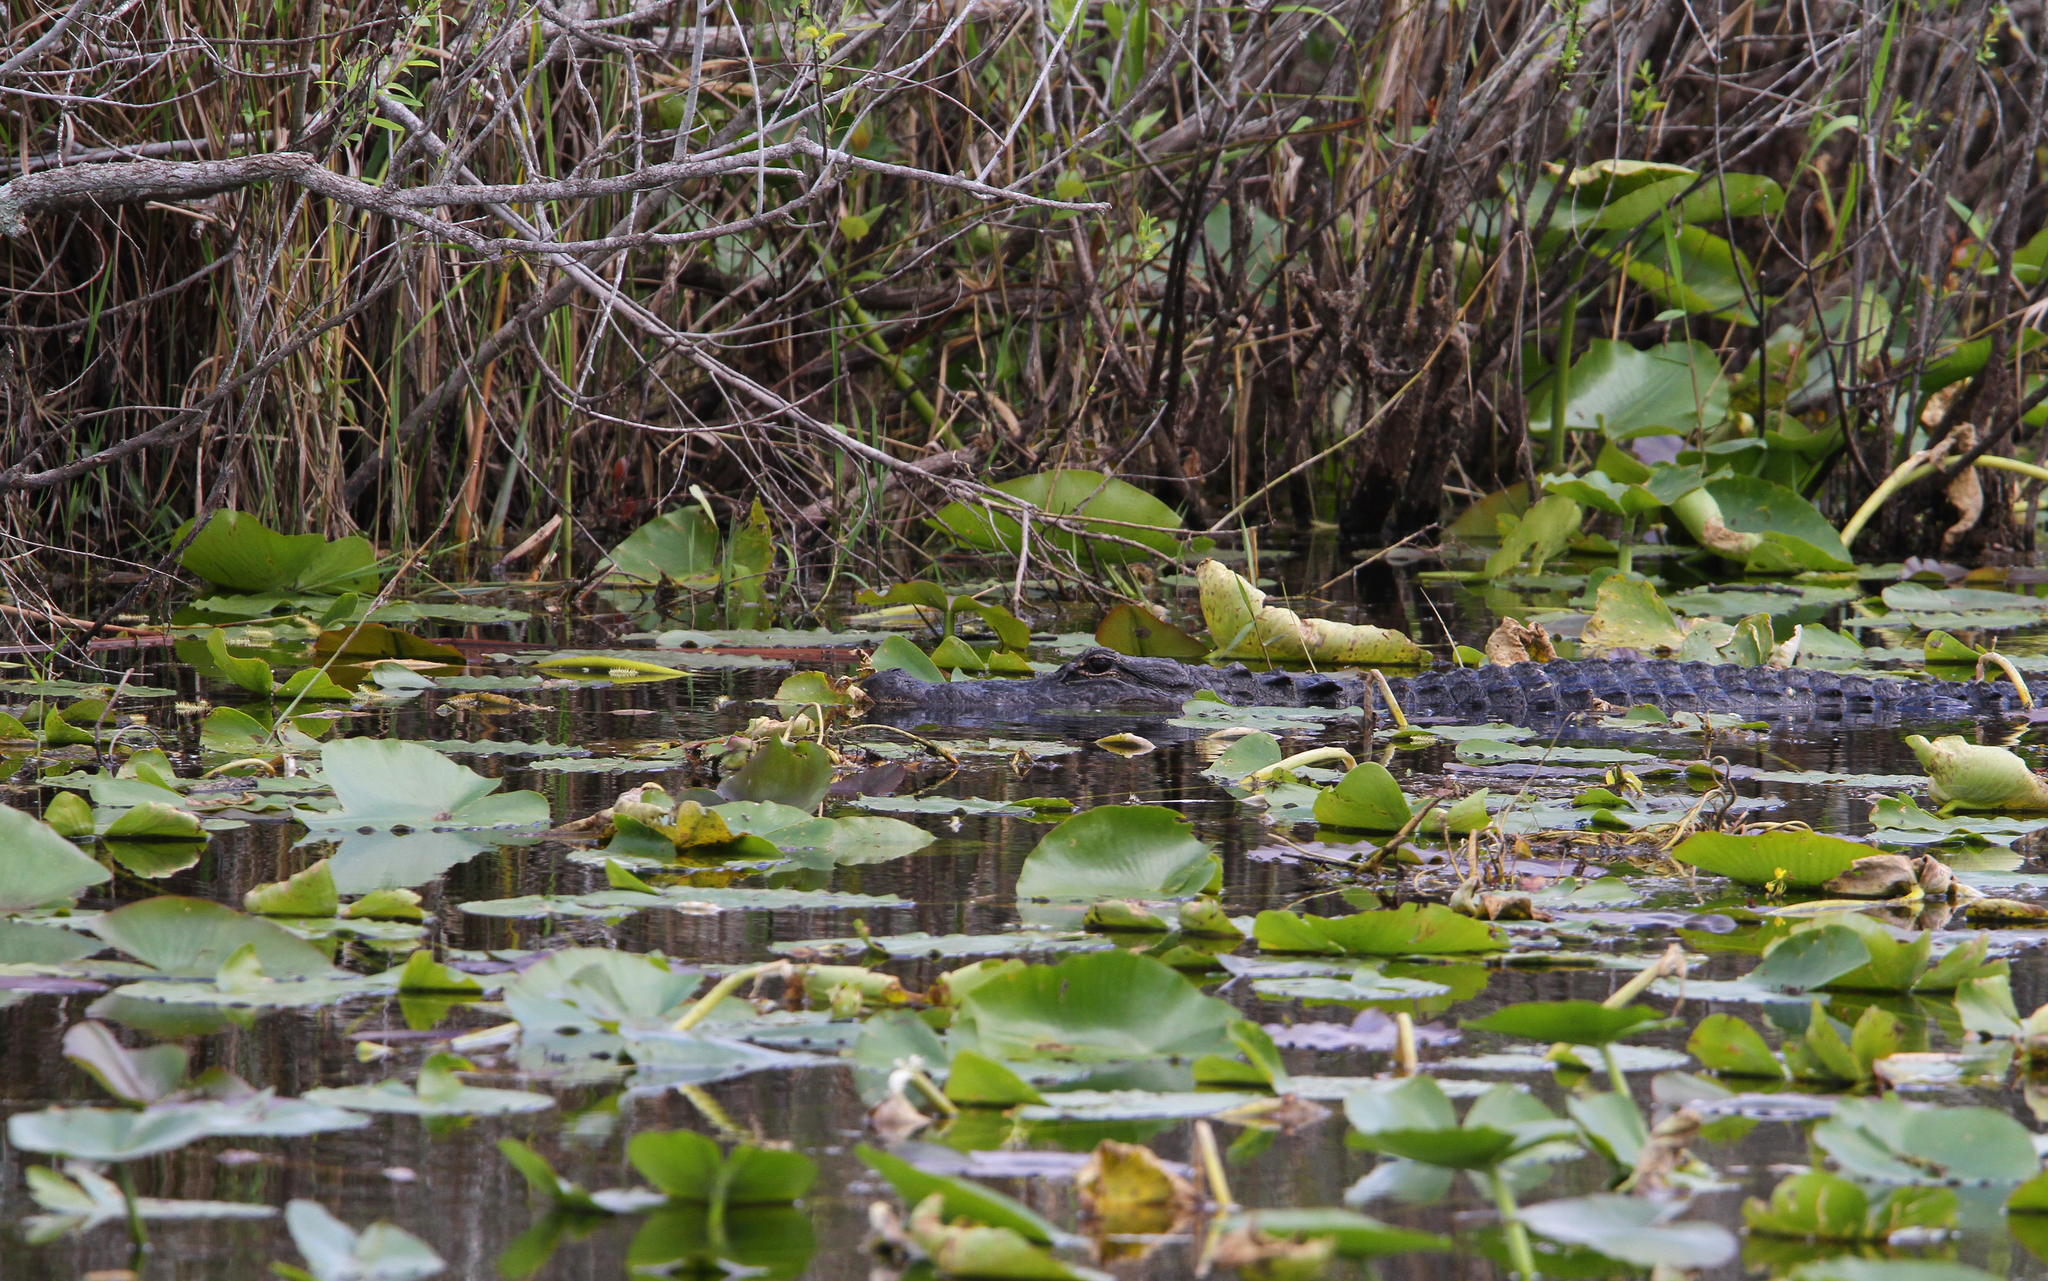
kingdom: Animalia
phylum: Chordata
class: Crocodylia
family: Alligatoridae
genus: Alligator
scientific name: Alligator mississippiensis
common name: American alligator
